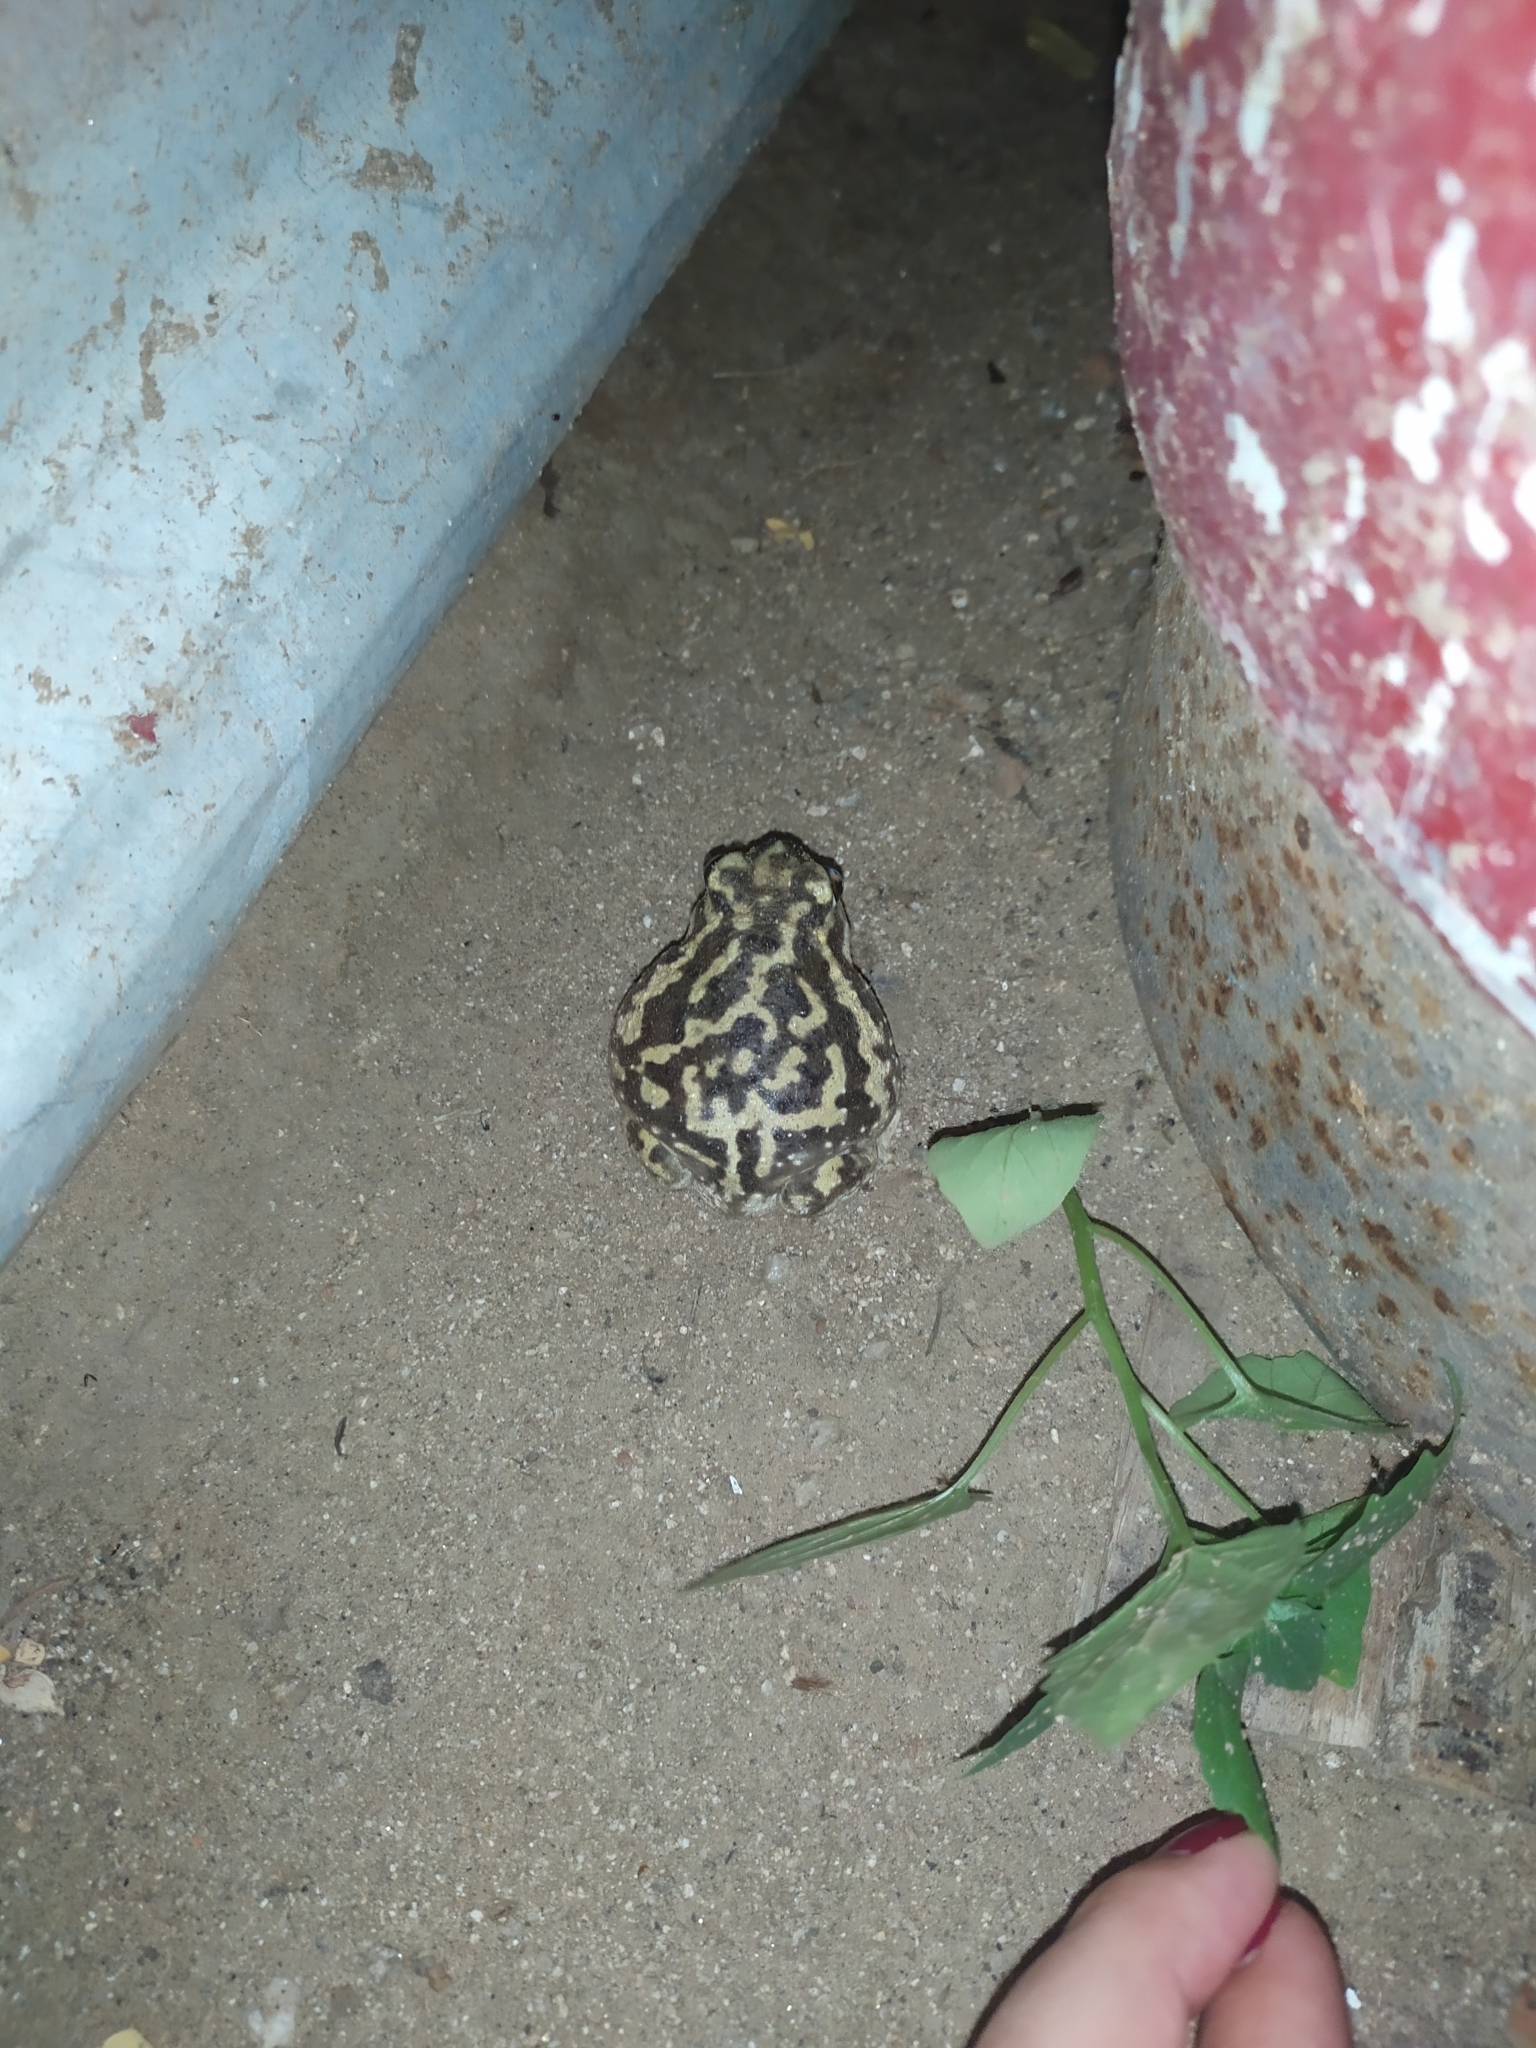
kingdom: Animalia
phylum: Chordata
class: Amphibia
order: Anura
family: Scaphiopodidae
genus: Scaphiopus
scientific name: Scaphiopus couchii
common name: Couch's spadefoot toad
